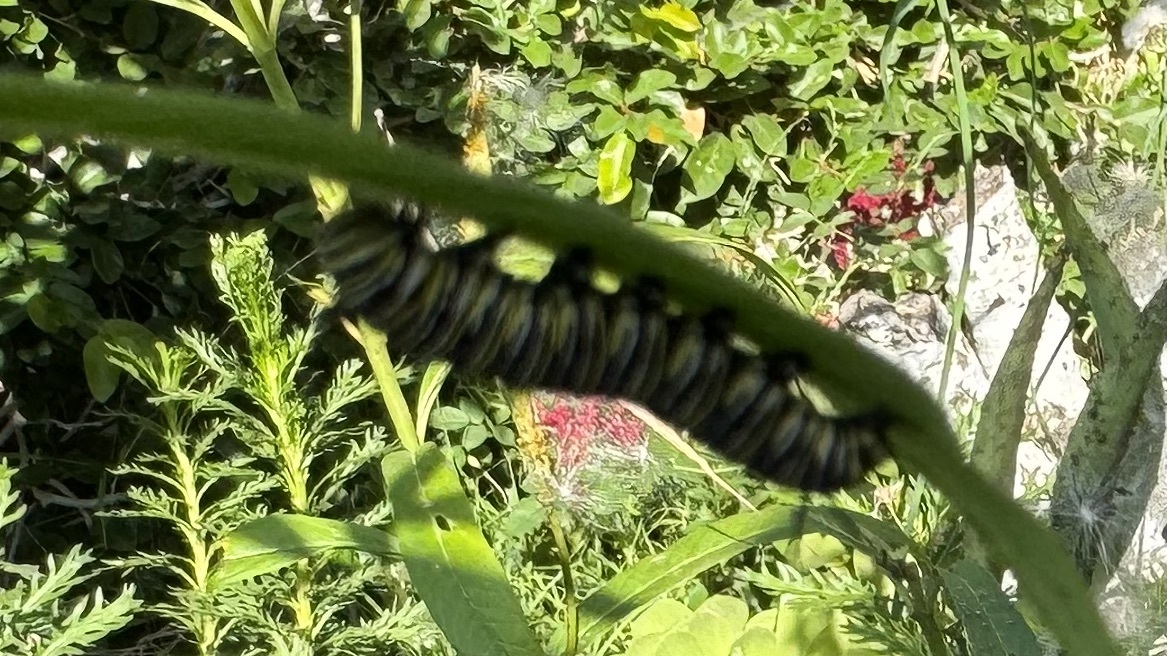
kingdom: Animalia
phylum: Arthropoda
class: Insecta
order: Lepidoptera
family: Nymphalidae
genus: Danaus
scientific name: Danaus plexippus
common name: Monarch
